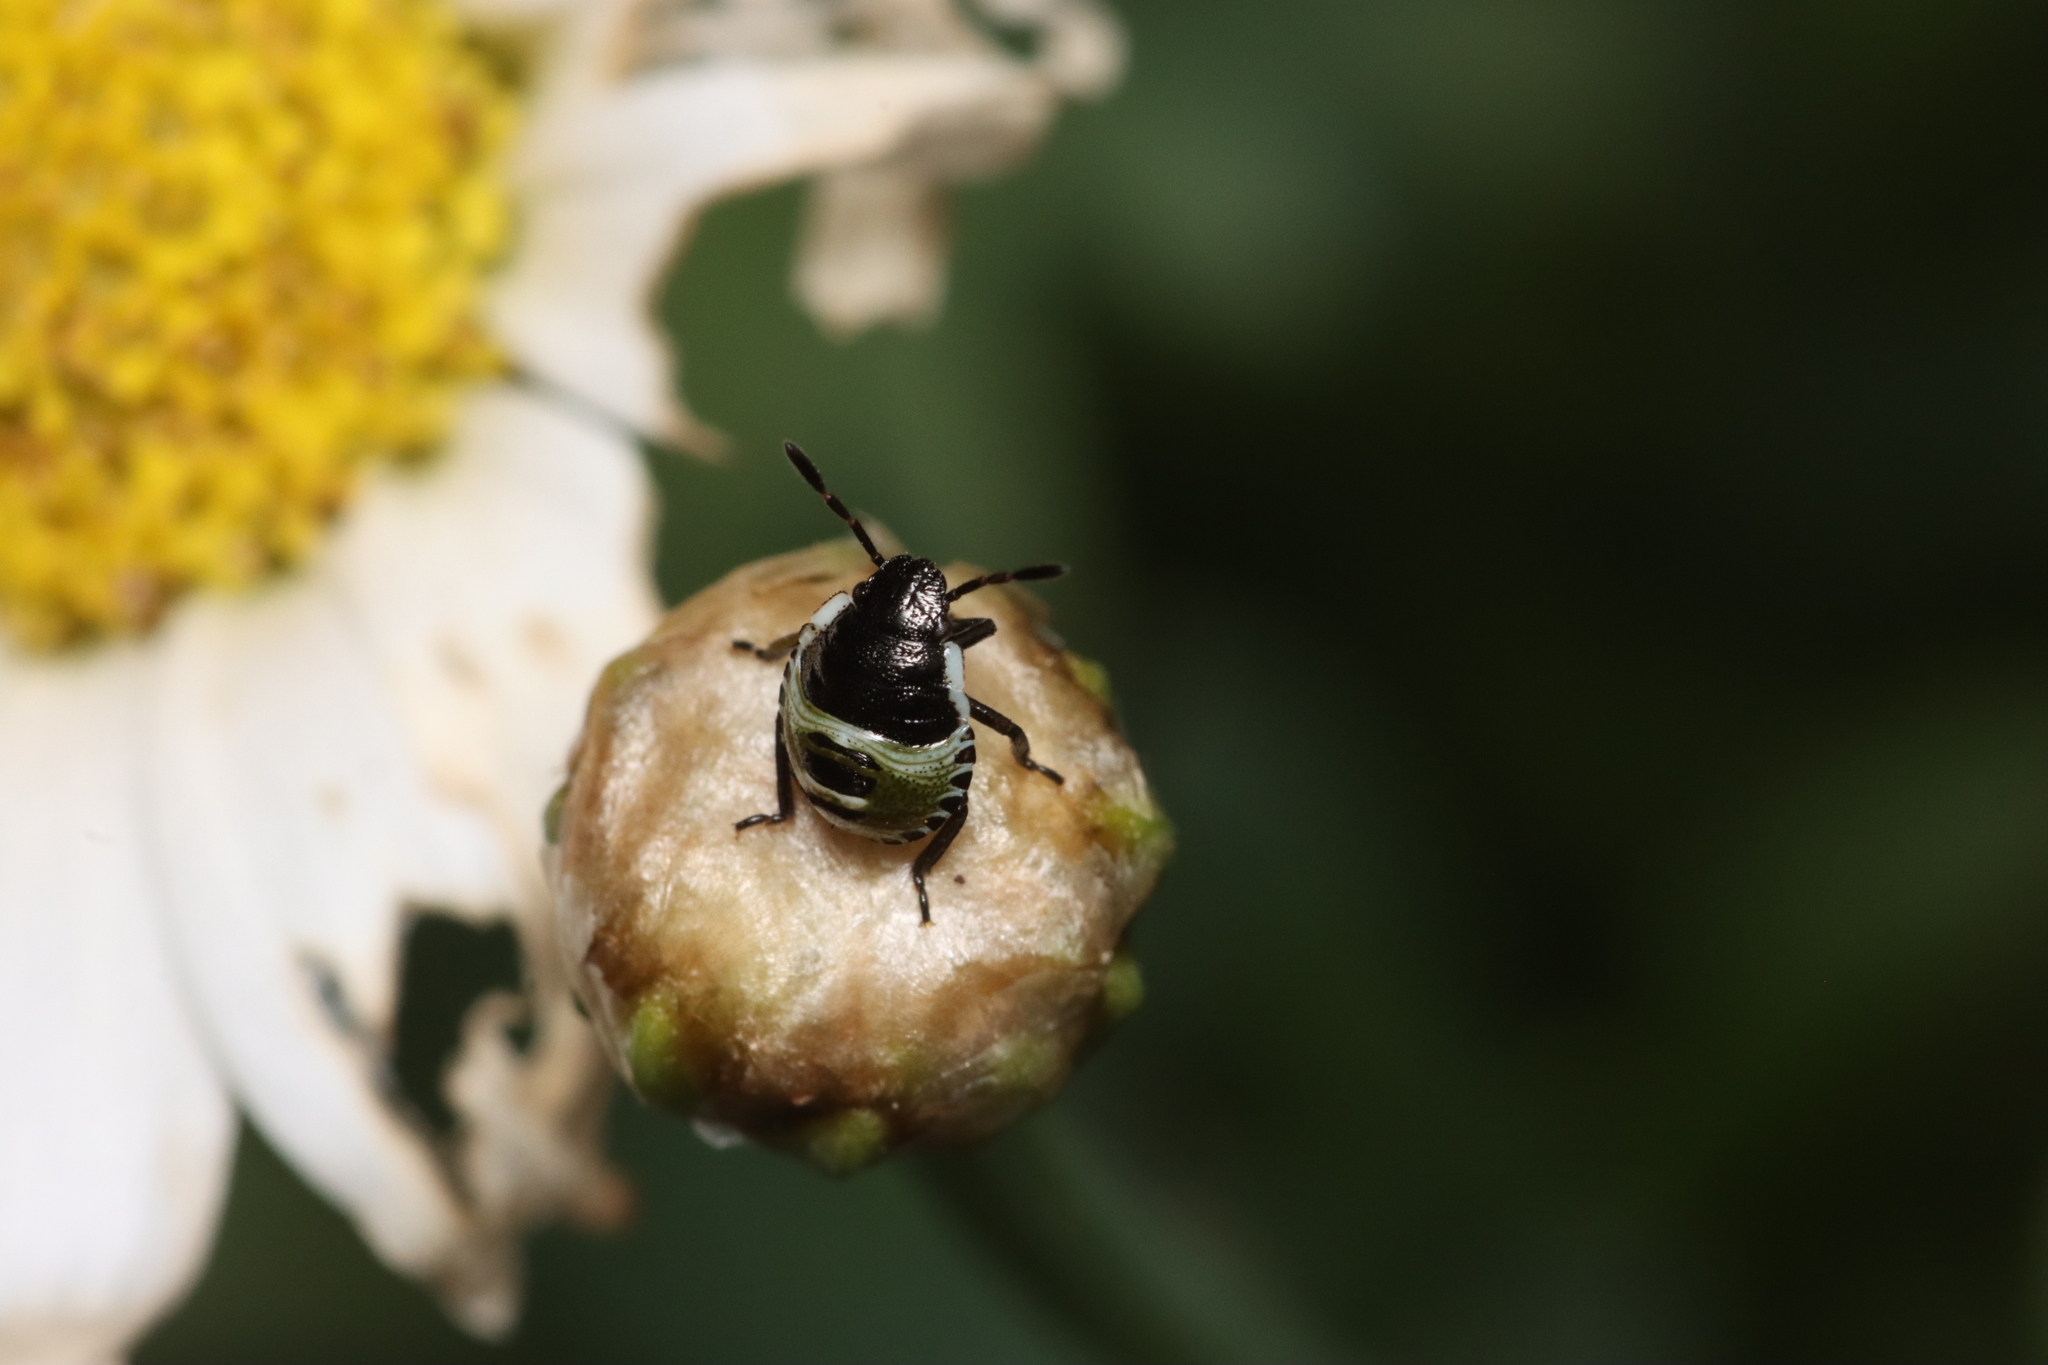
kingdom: Animalia
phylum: Arthropoda
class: Insecta
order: Hemiptera
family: Pentatomidae
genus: Palomena
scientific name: Palomena prasina
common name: Green shieldbug
